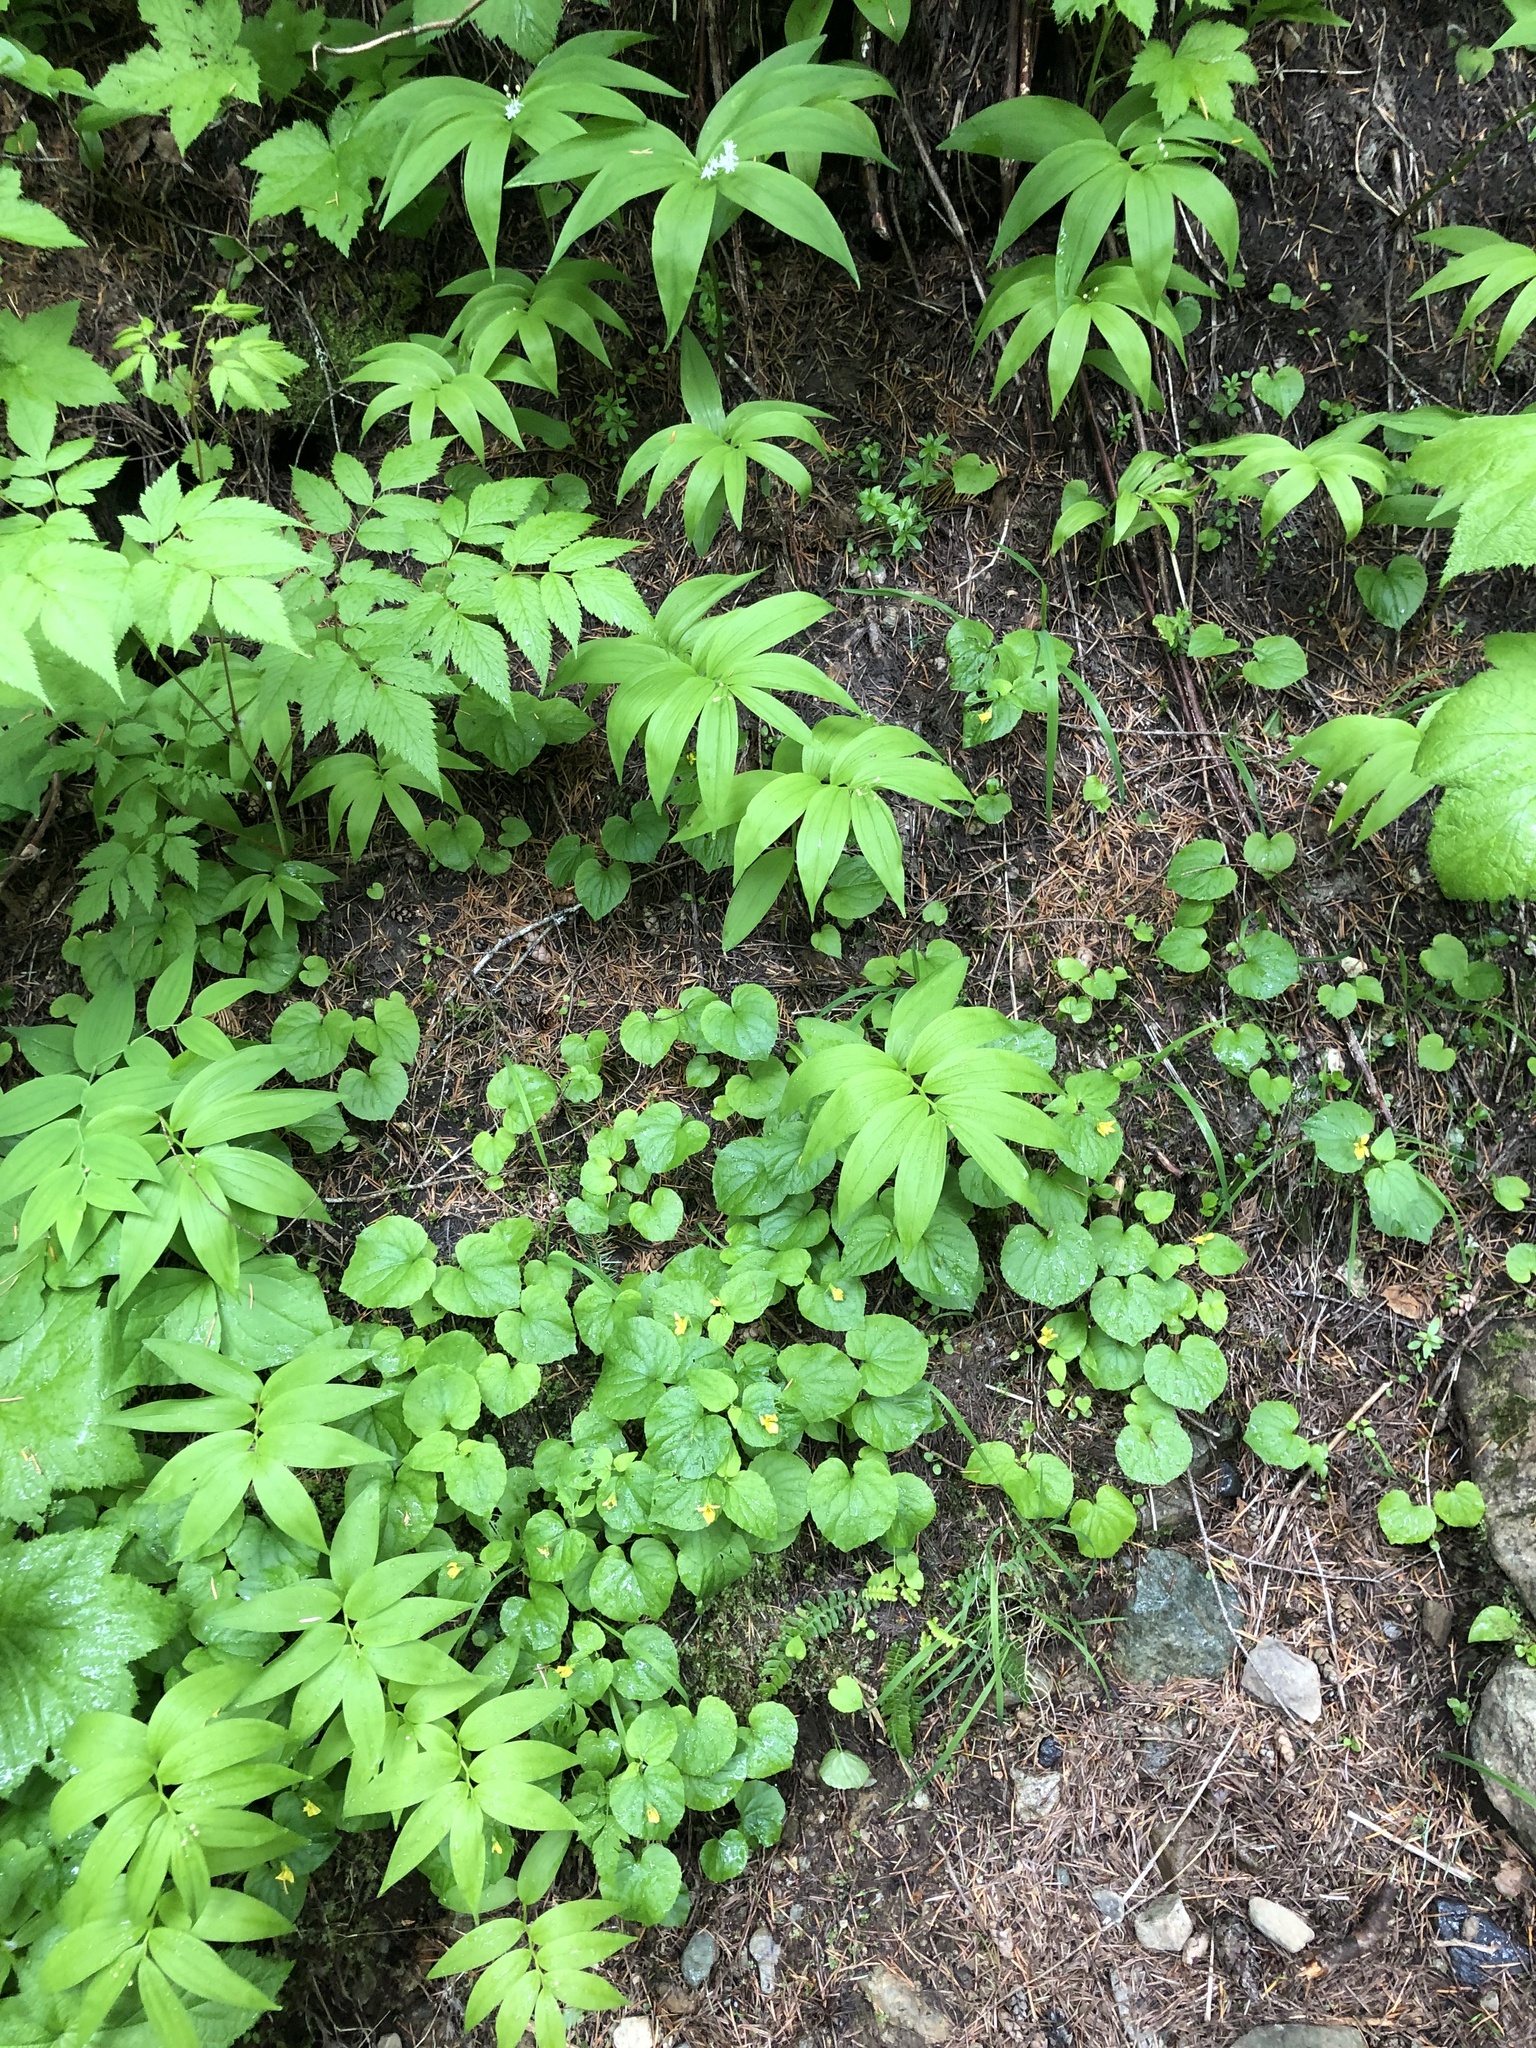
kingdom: Plantae
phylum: Tracheophyta
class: Magnoliopsida
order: Malpighiales
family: Violaceae
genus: Viola
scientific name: Viola glabella
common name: Stream violet
